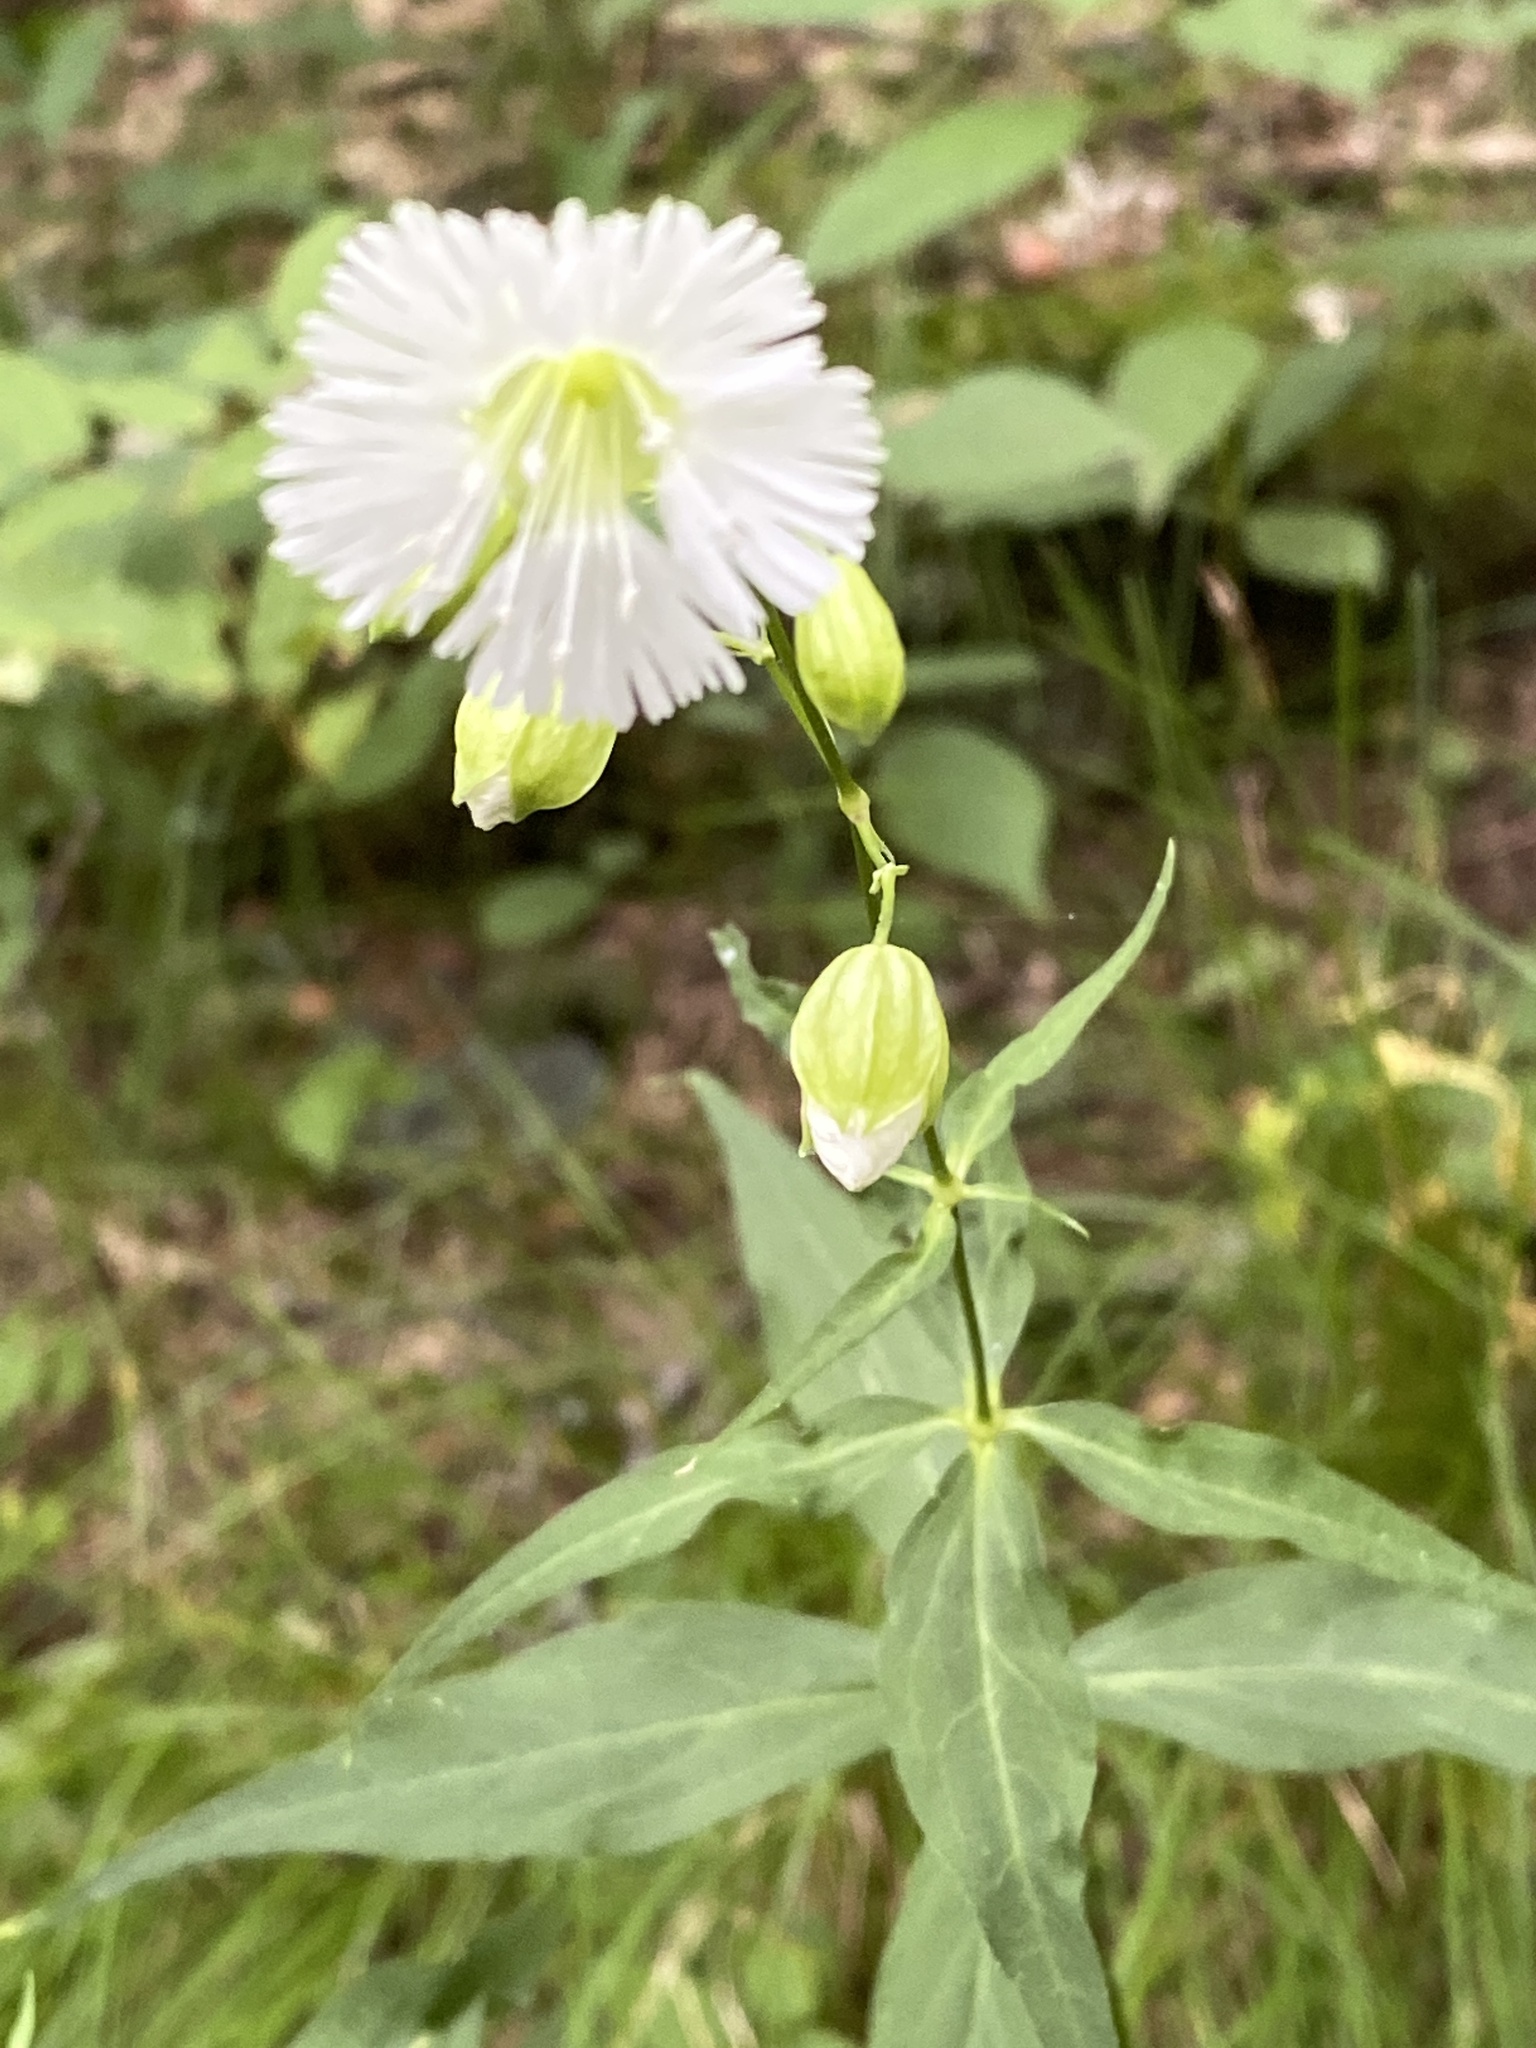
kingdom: Plantae
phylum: Tracheophyta
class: Magnoliopsida
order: Caryophyllales
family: Caryophyllaceae
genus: Silene
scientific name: Silene stellata
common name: Starry campion
